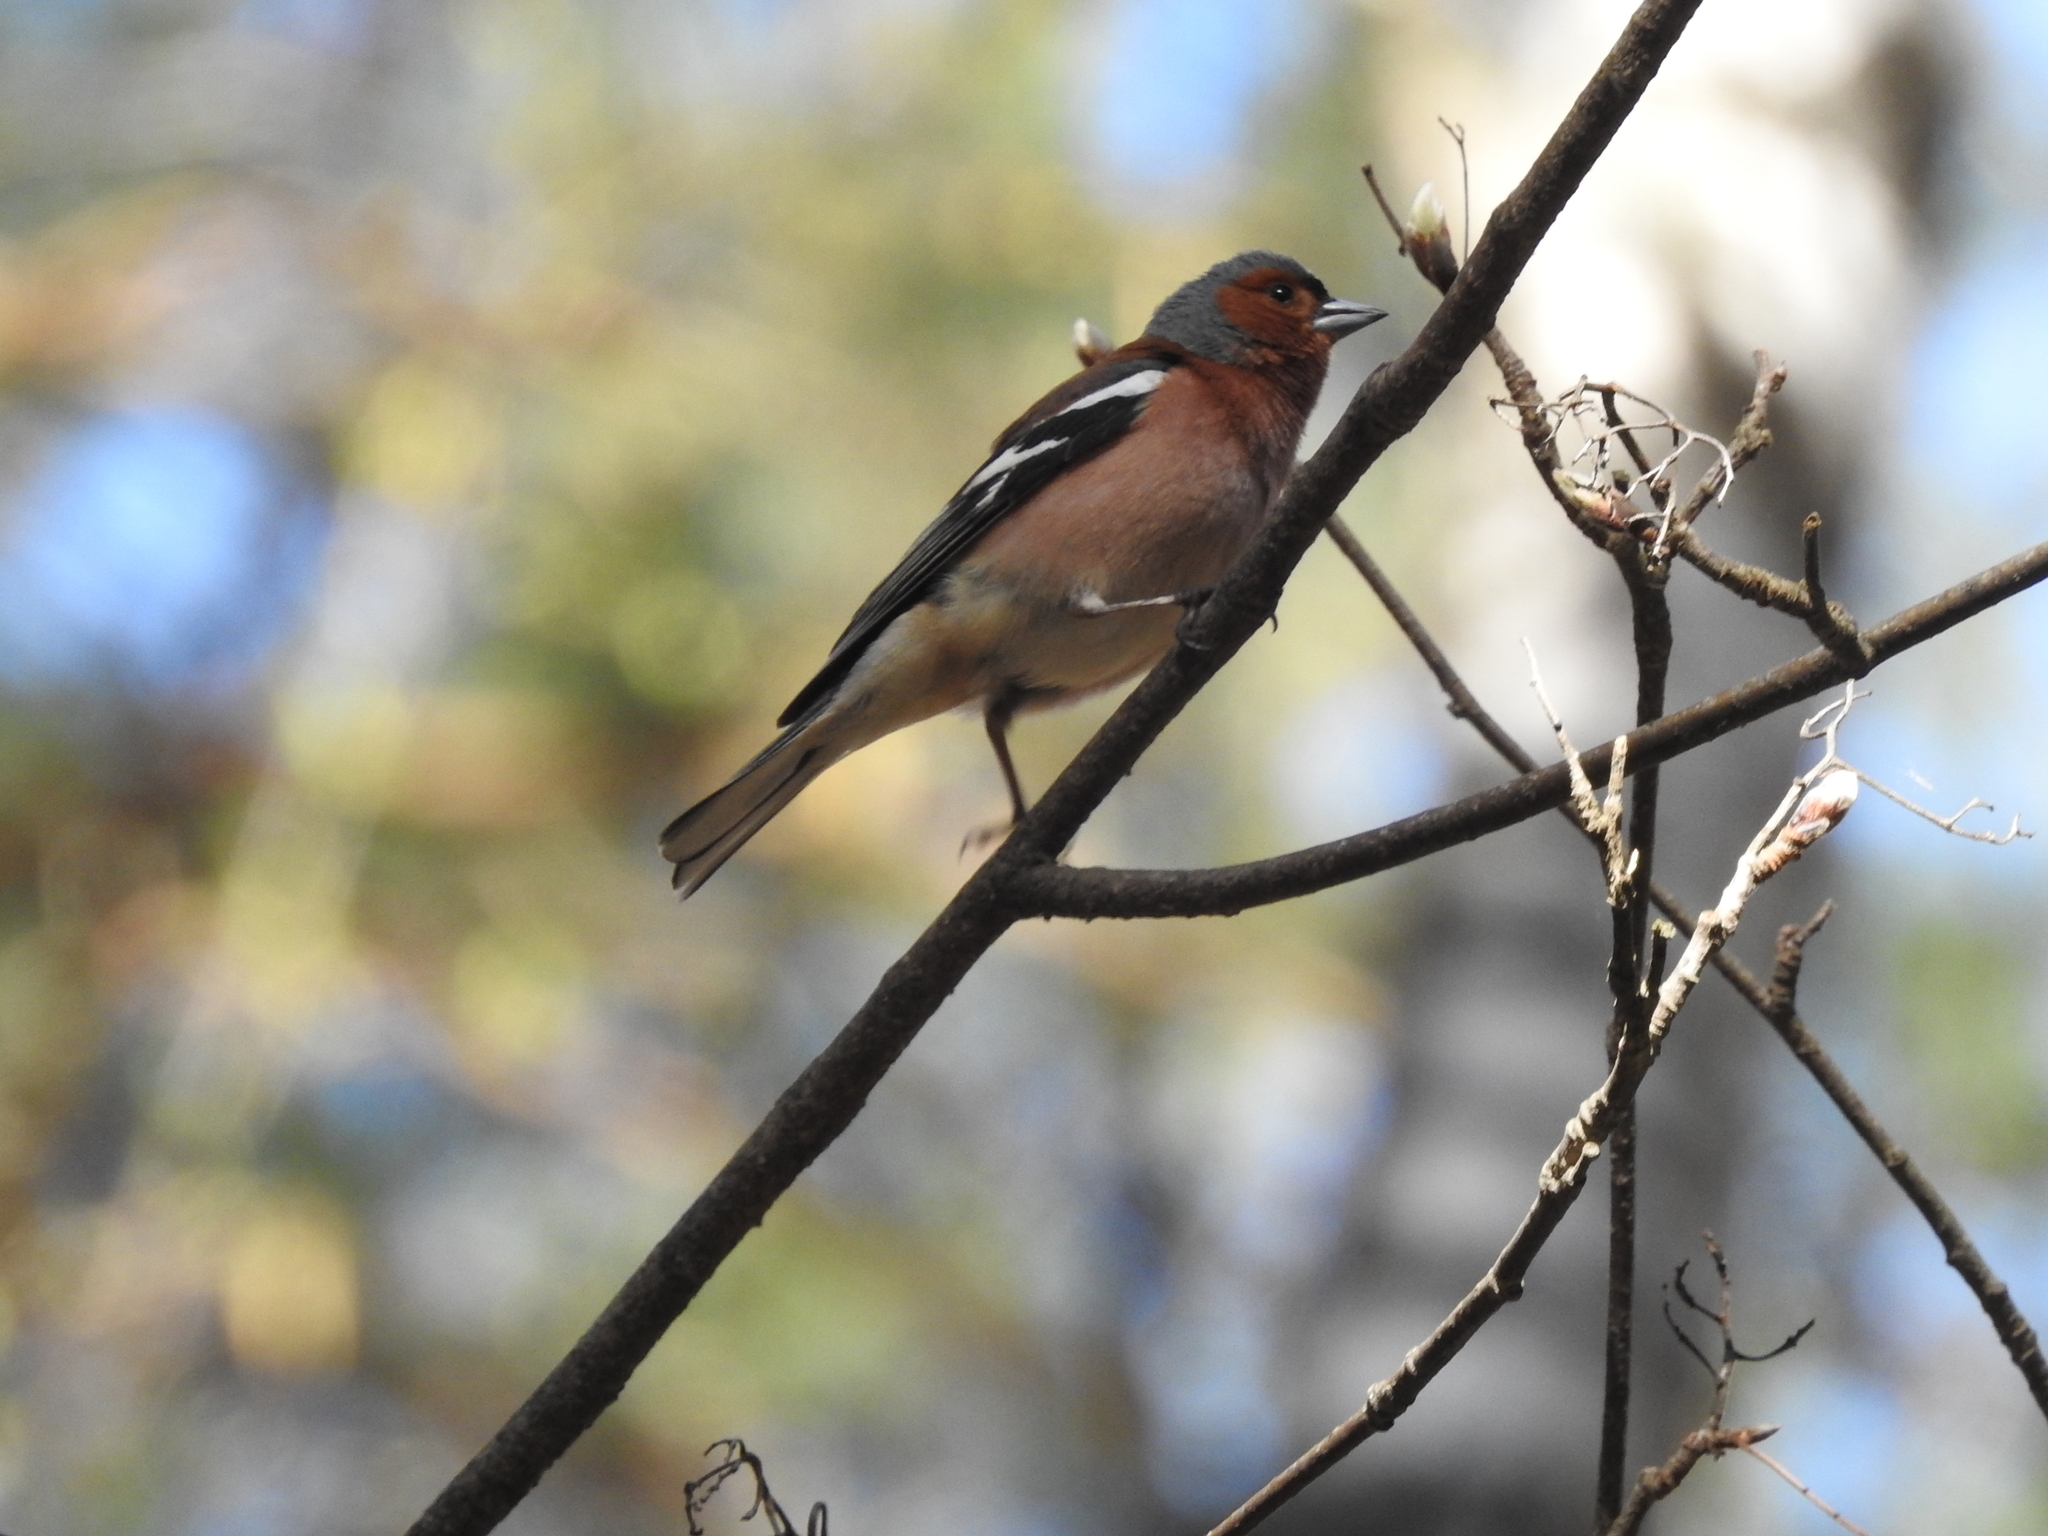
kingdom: Animalia
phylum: Chordata
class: Aves
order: Passeriformes
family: Fringillidae
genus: Fringilla
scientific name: Fringilla coelebs
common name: Common chaffinch
